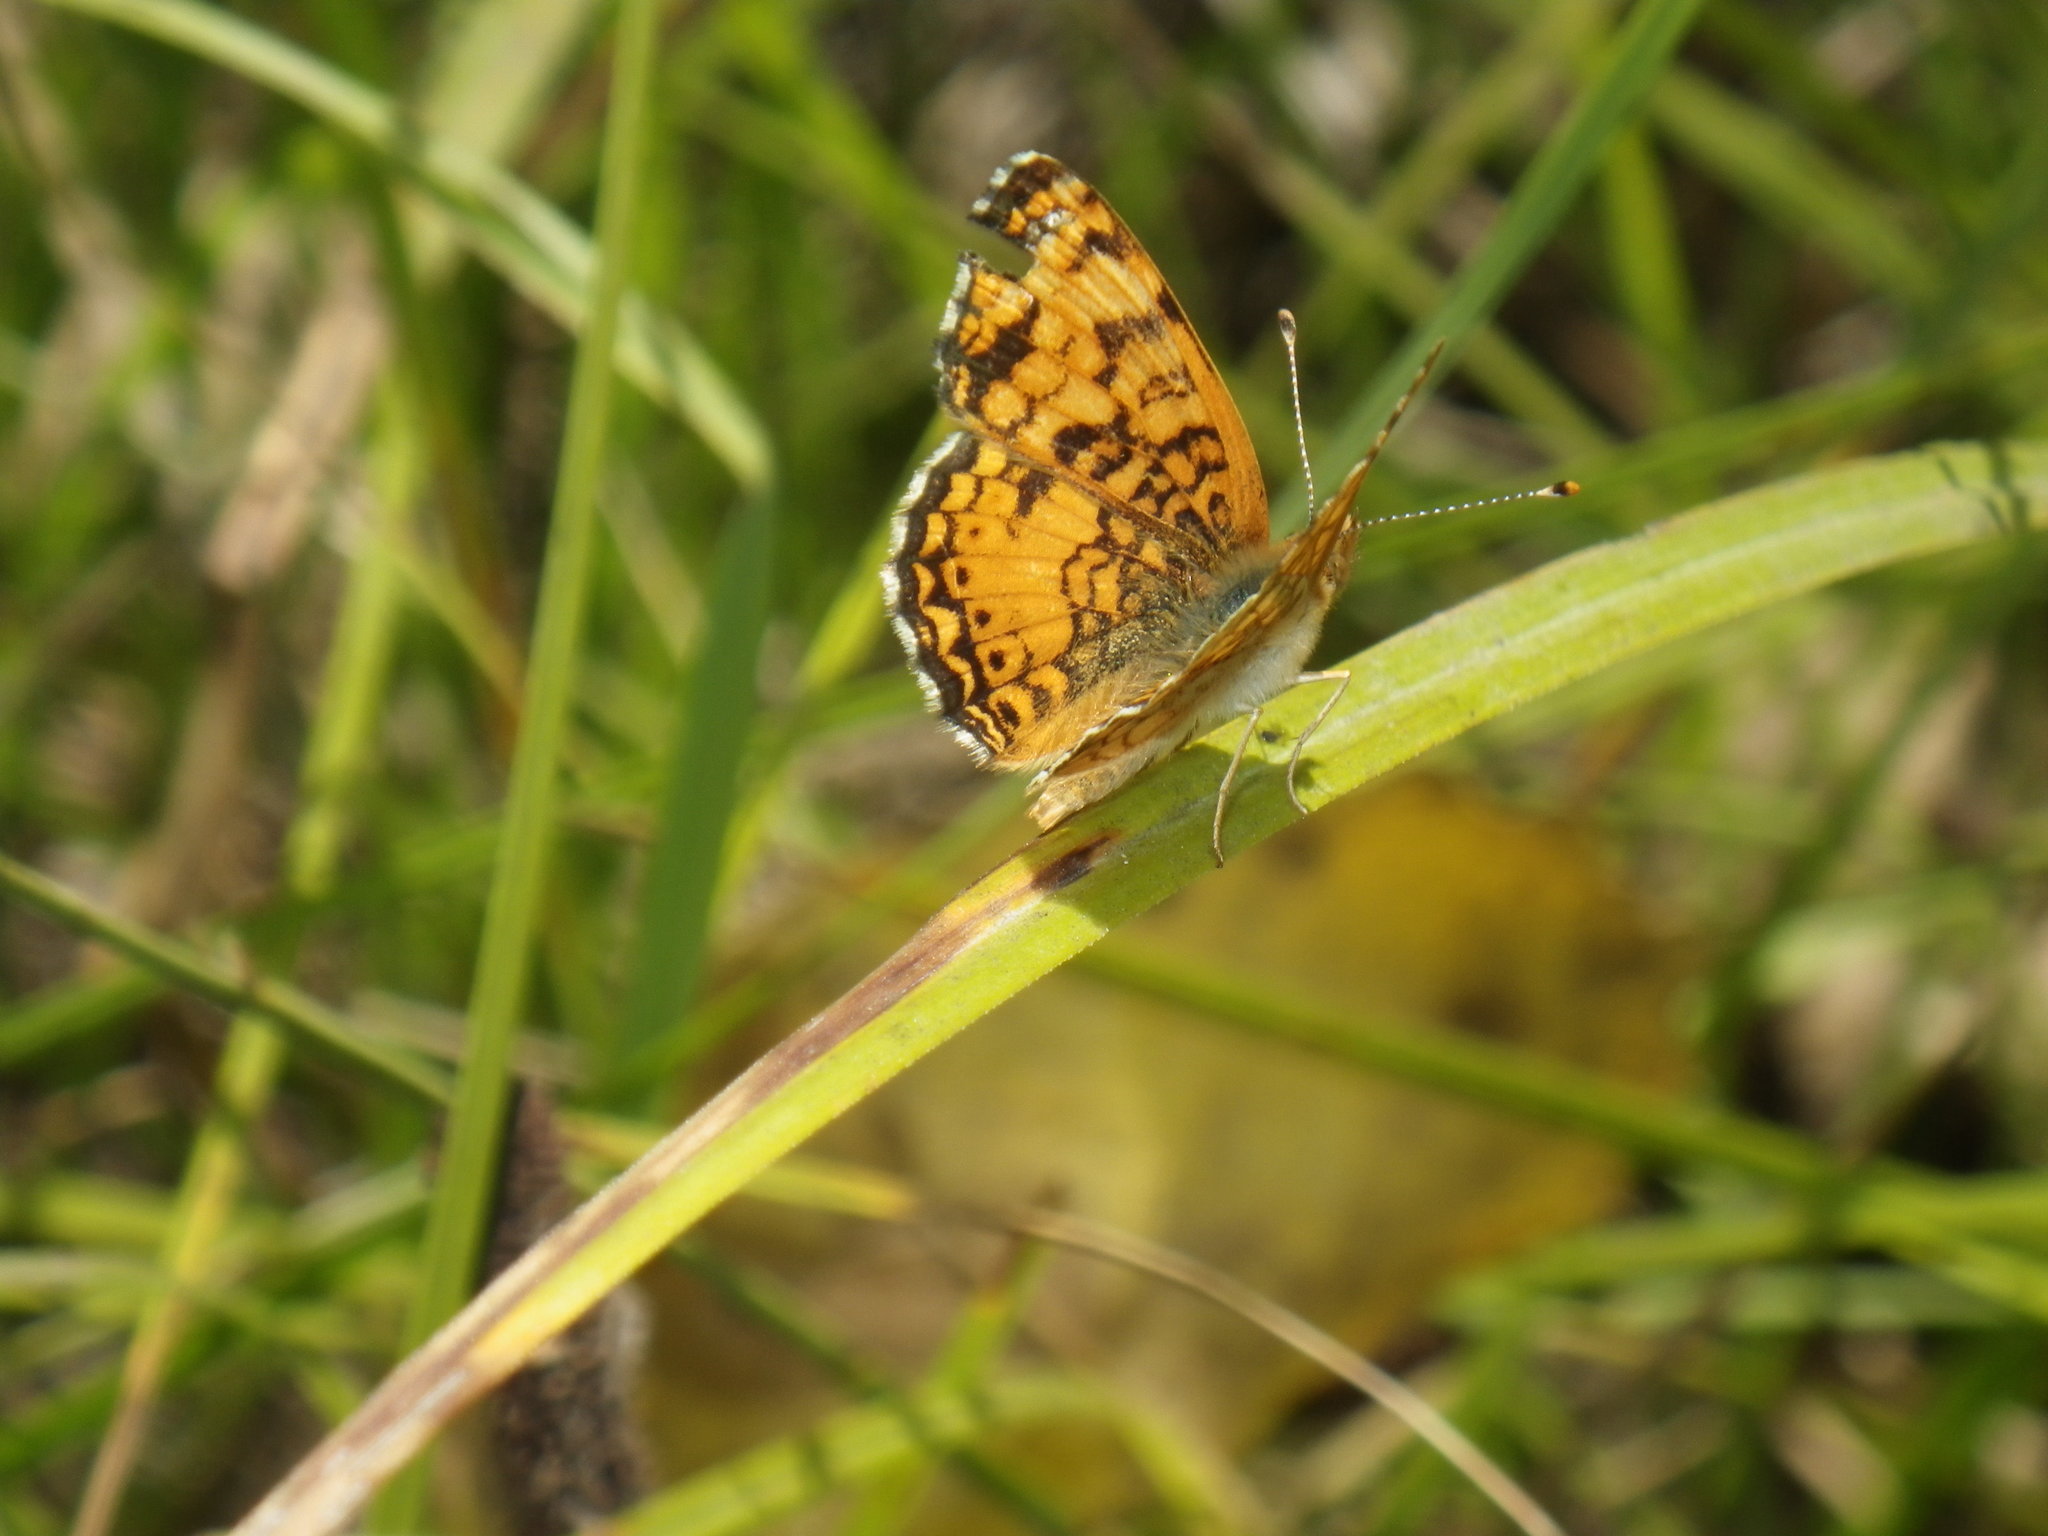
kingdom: Animalia
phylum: Arthropoda
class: Insecta
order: Lepidoptera
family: Nymphalidae
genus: Eresia
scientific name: Eresia aveyrona
